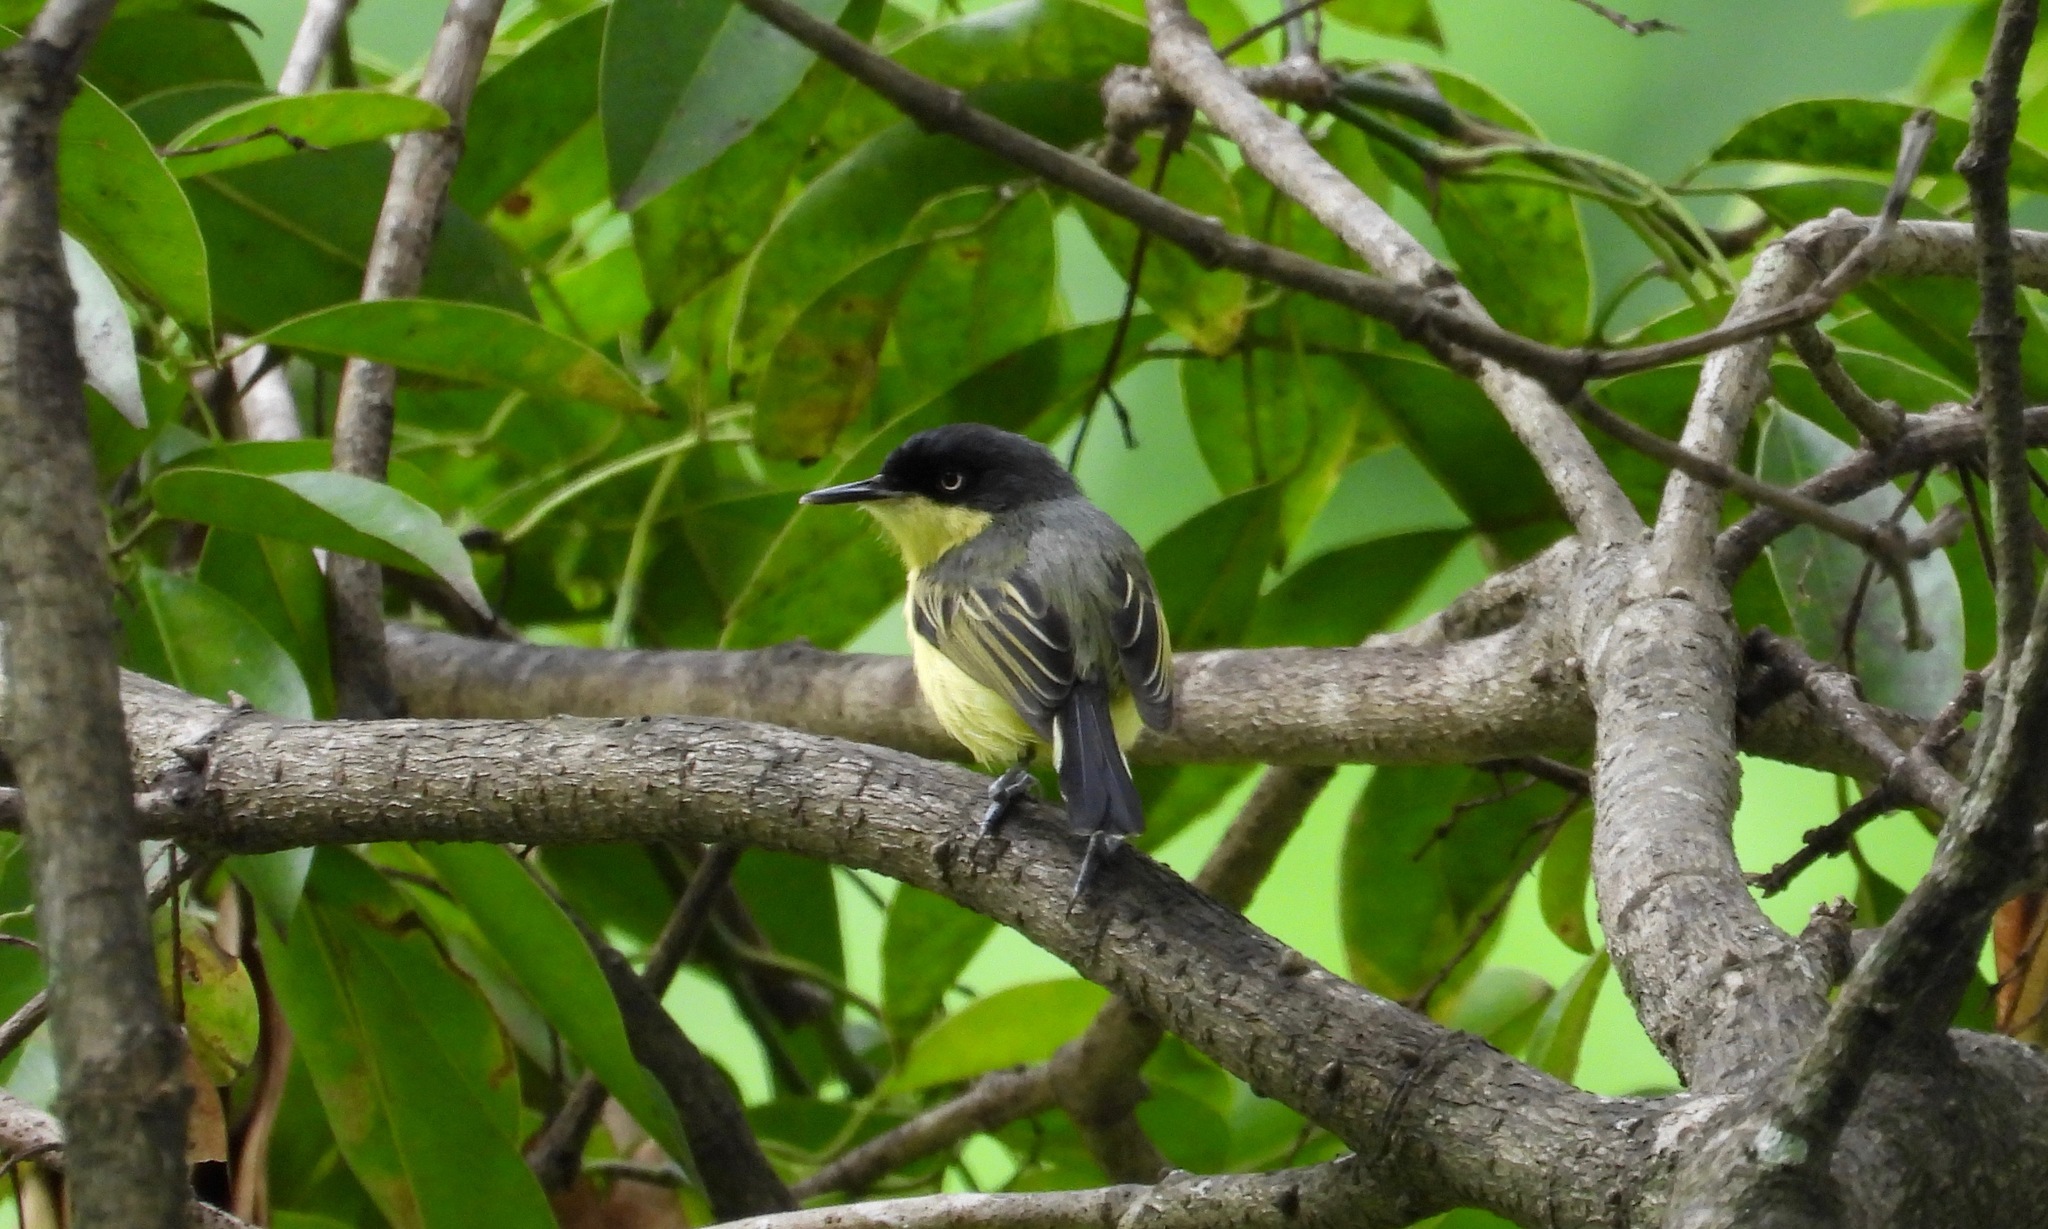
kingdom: Animalia
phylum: Chordata
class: Aves
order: Passeriformes
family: Tyrannidae
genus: Todirostrum
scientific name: Todirostrum cinereum
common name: Common tody-flycatcher
